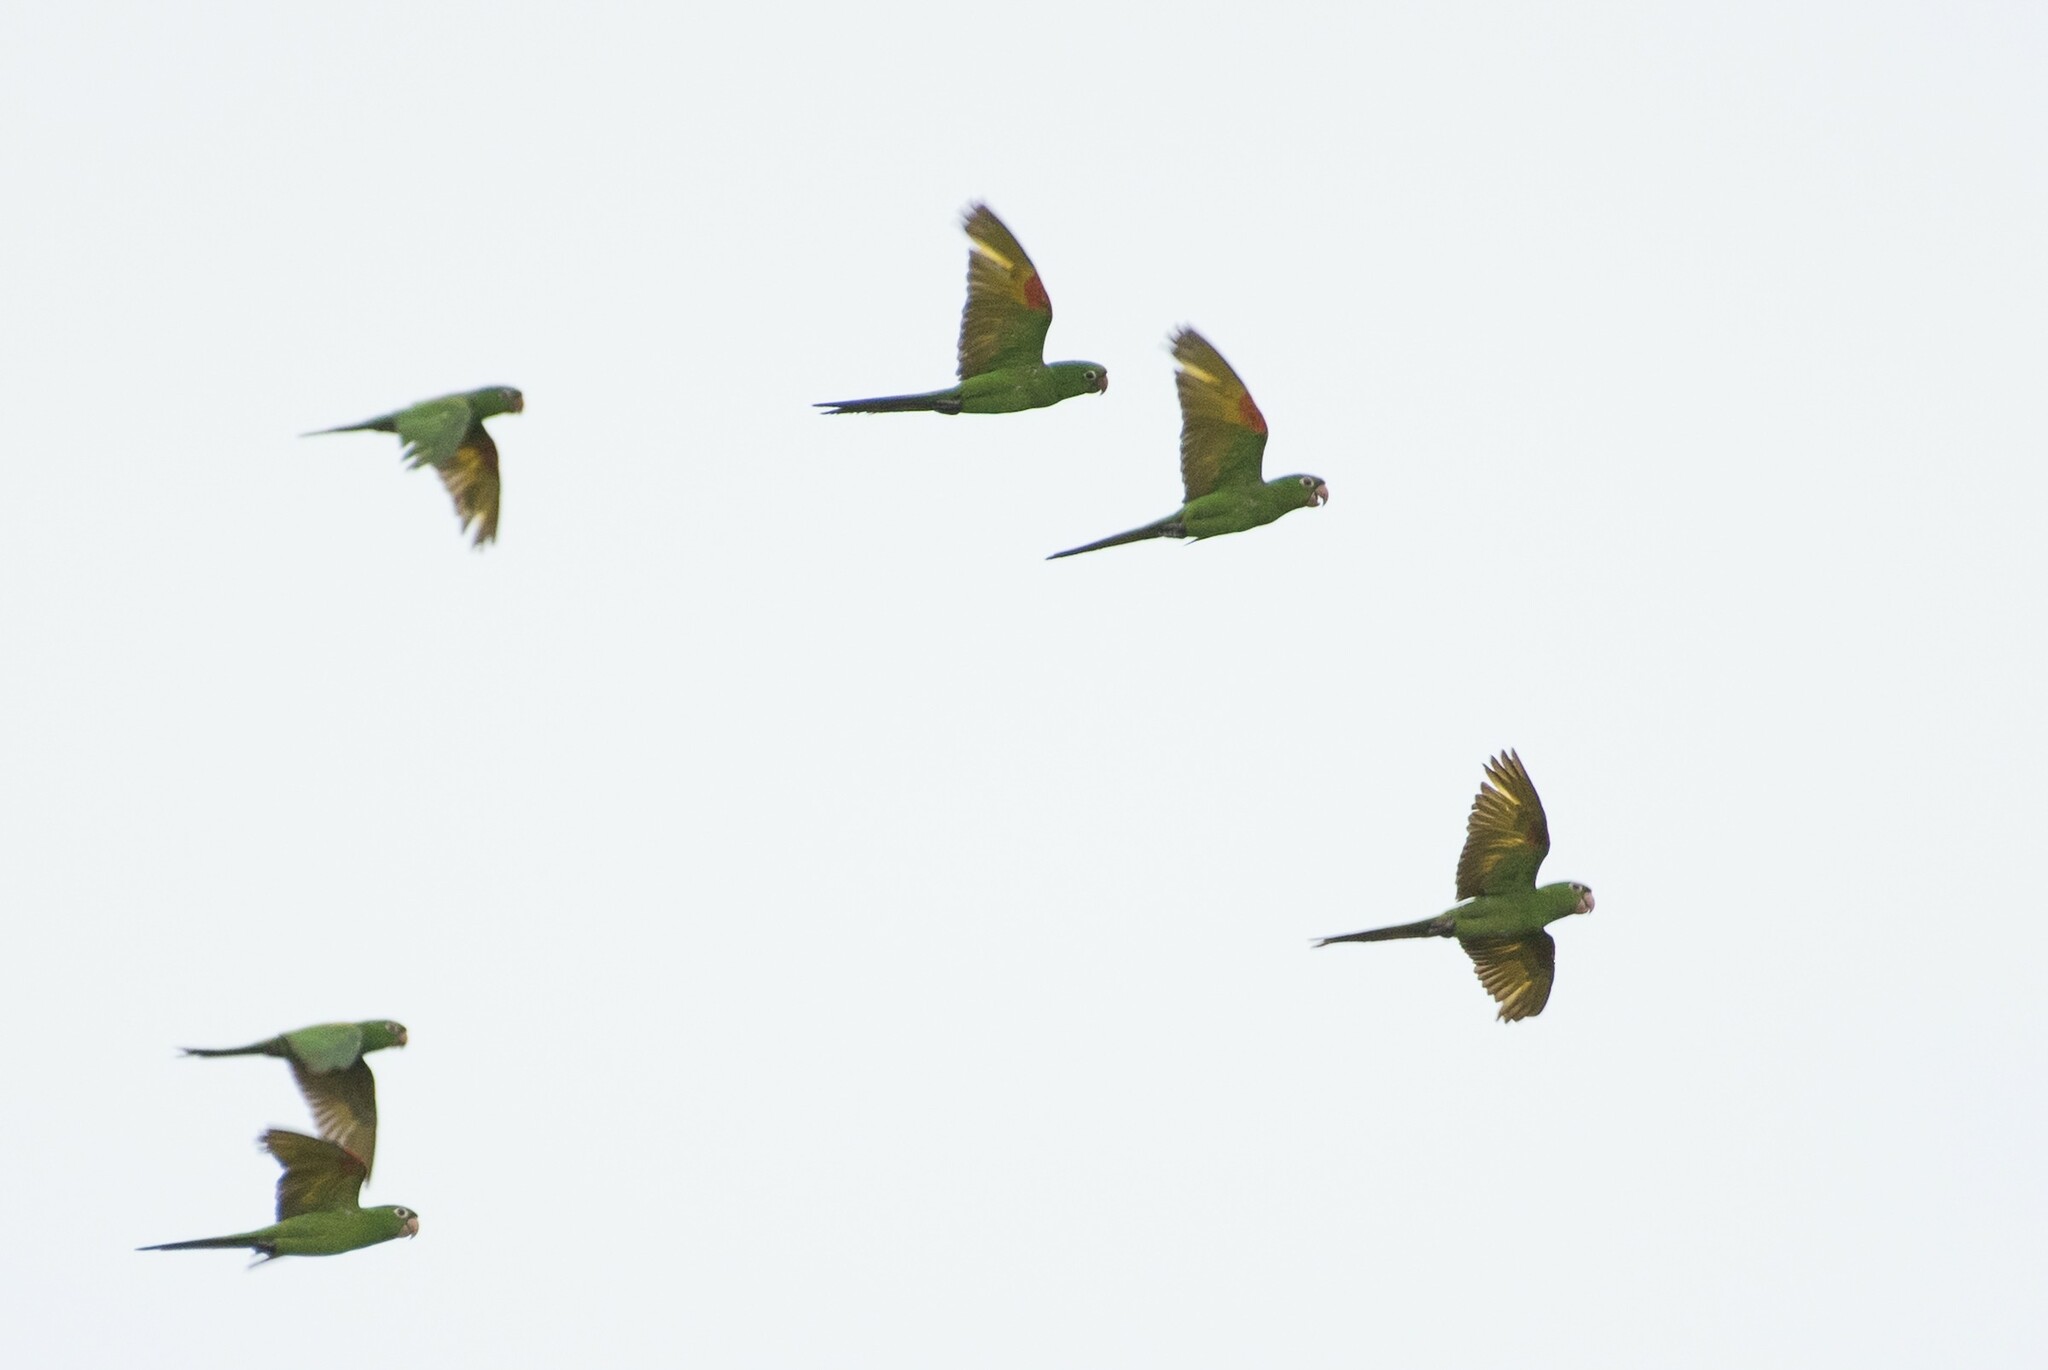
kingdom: Animalia
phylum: Chordata
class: Aves
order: Psittaciformes
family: Psittacidae
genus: Aratinga
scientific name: Aratinga leucophthalma
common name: White-eyed parakeet
